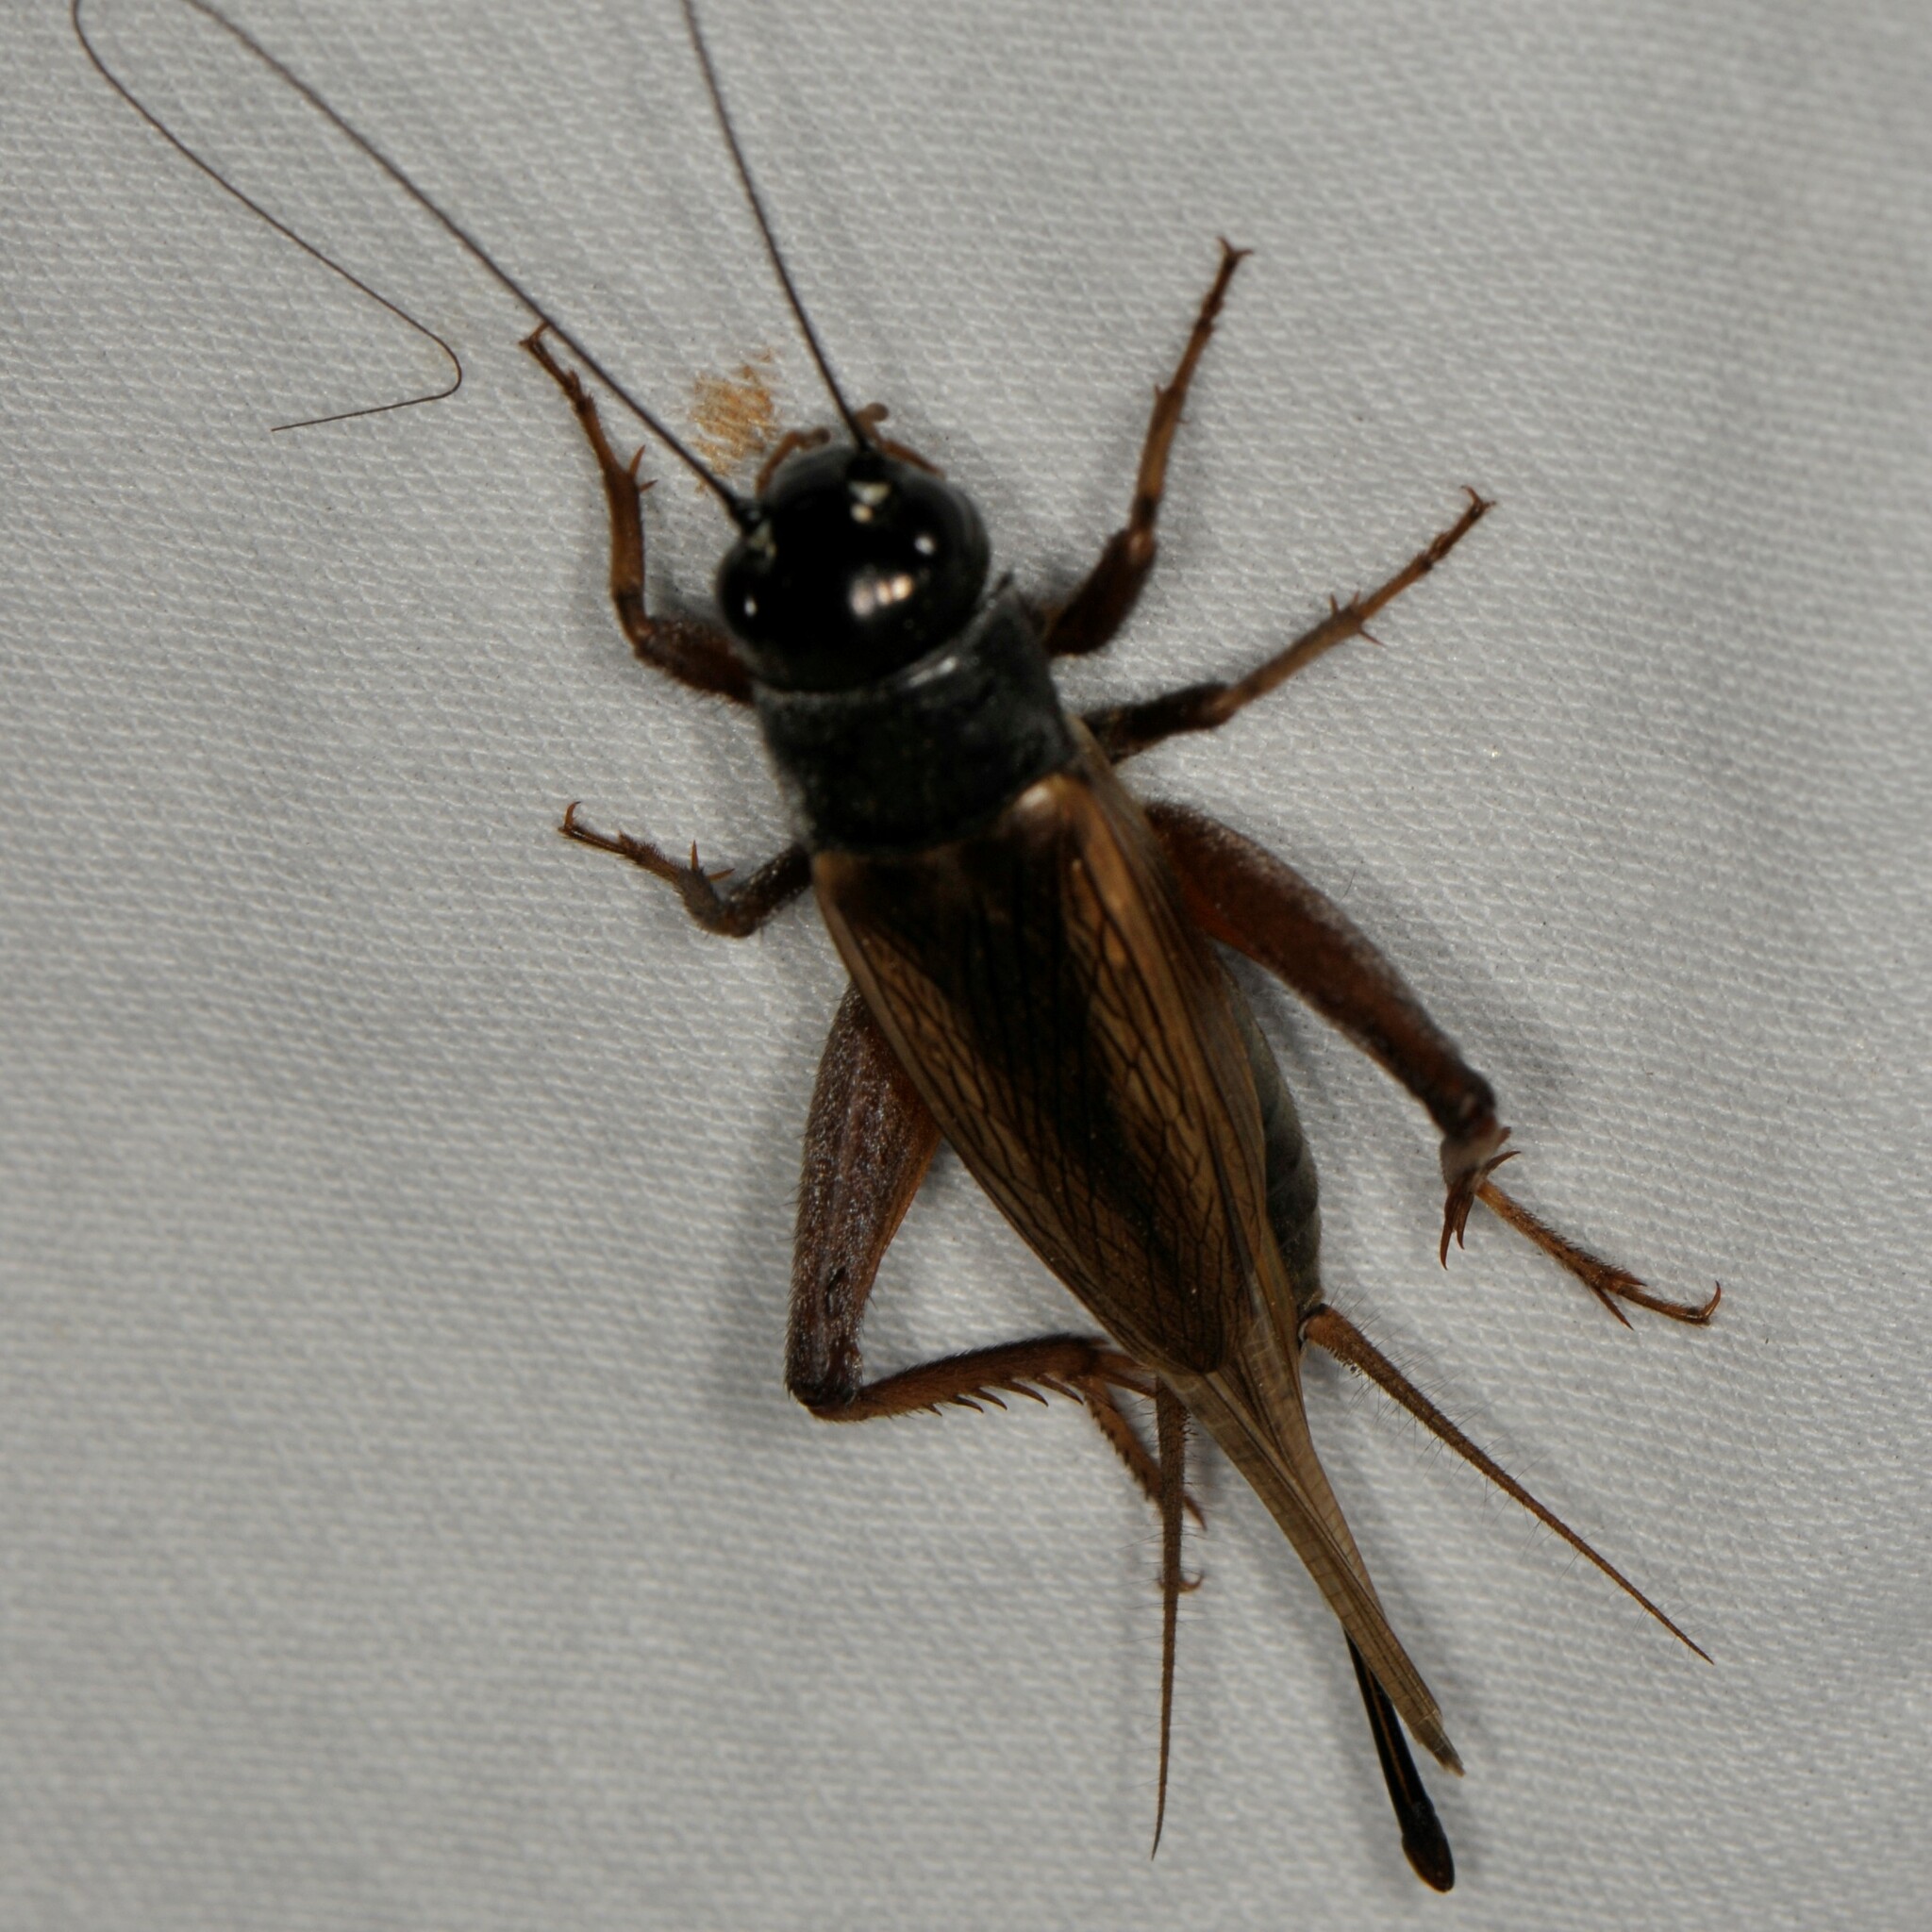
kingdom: Animalia
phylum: Arthropoda
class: Insecta
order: Orthoptera
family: Gryllidae
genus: Gryllus
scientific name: Gryllus armatus
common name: Armed field cricket
